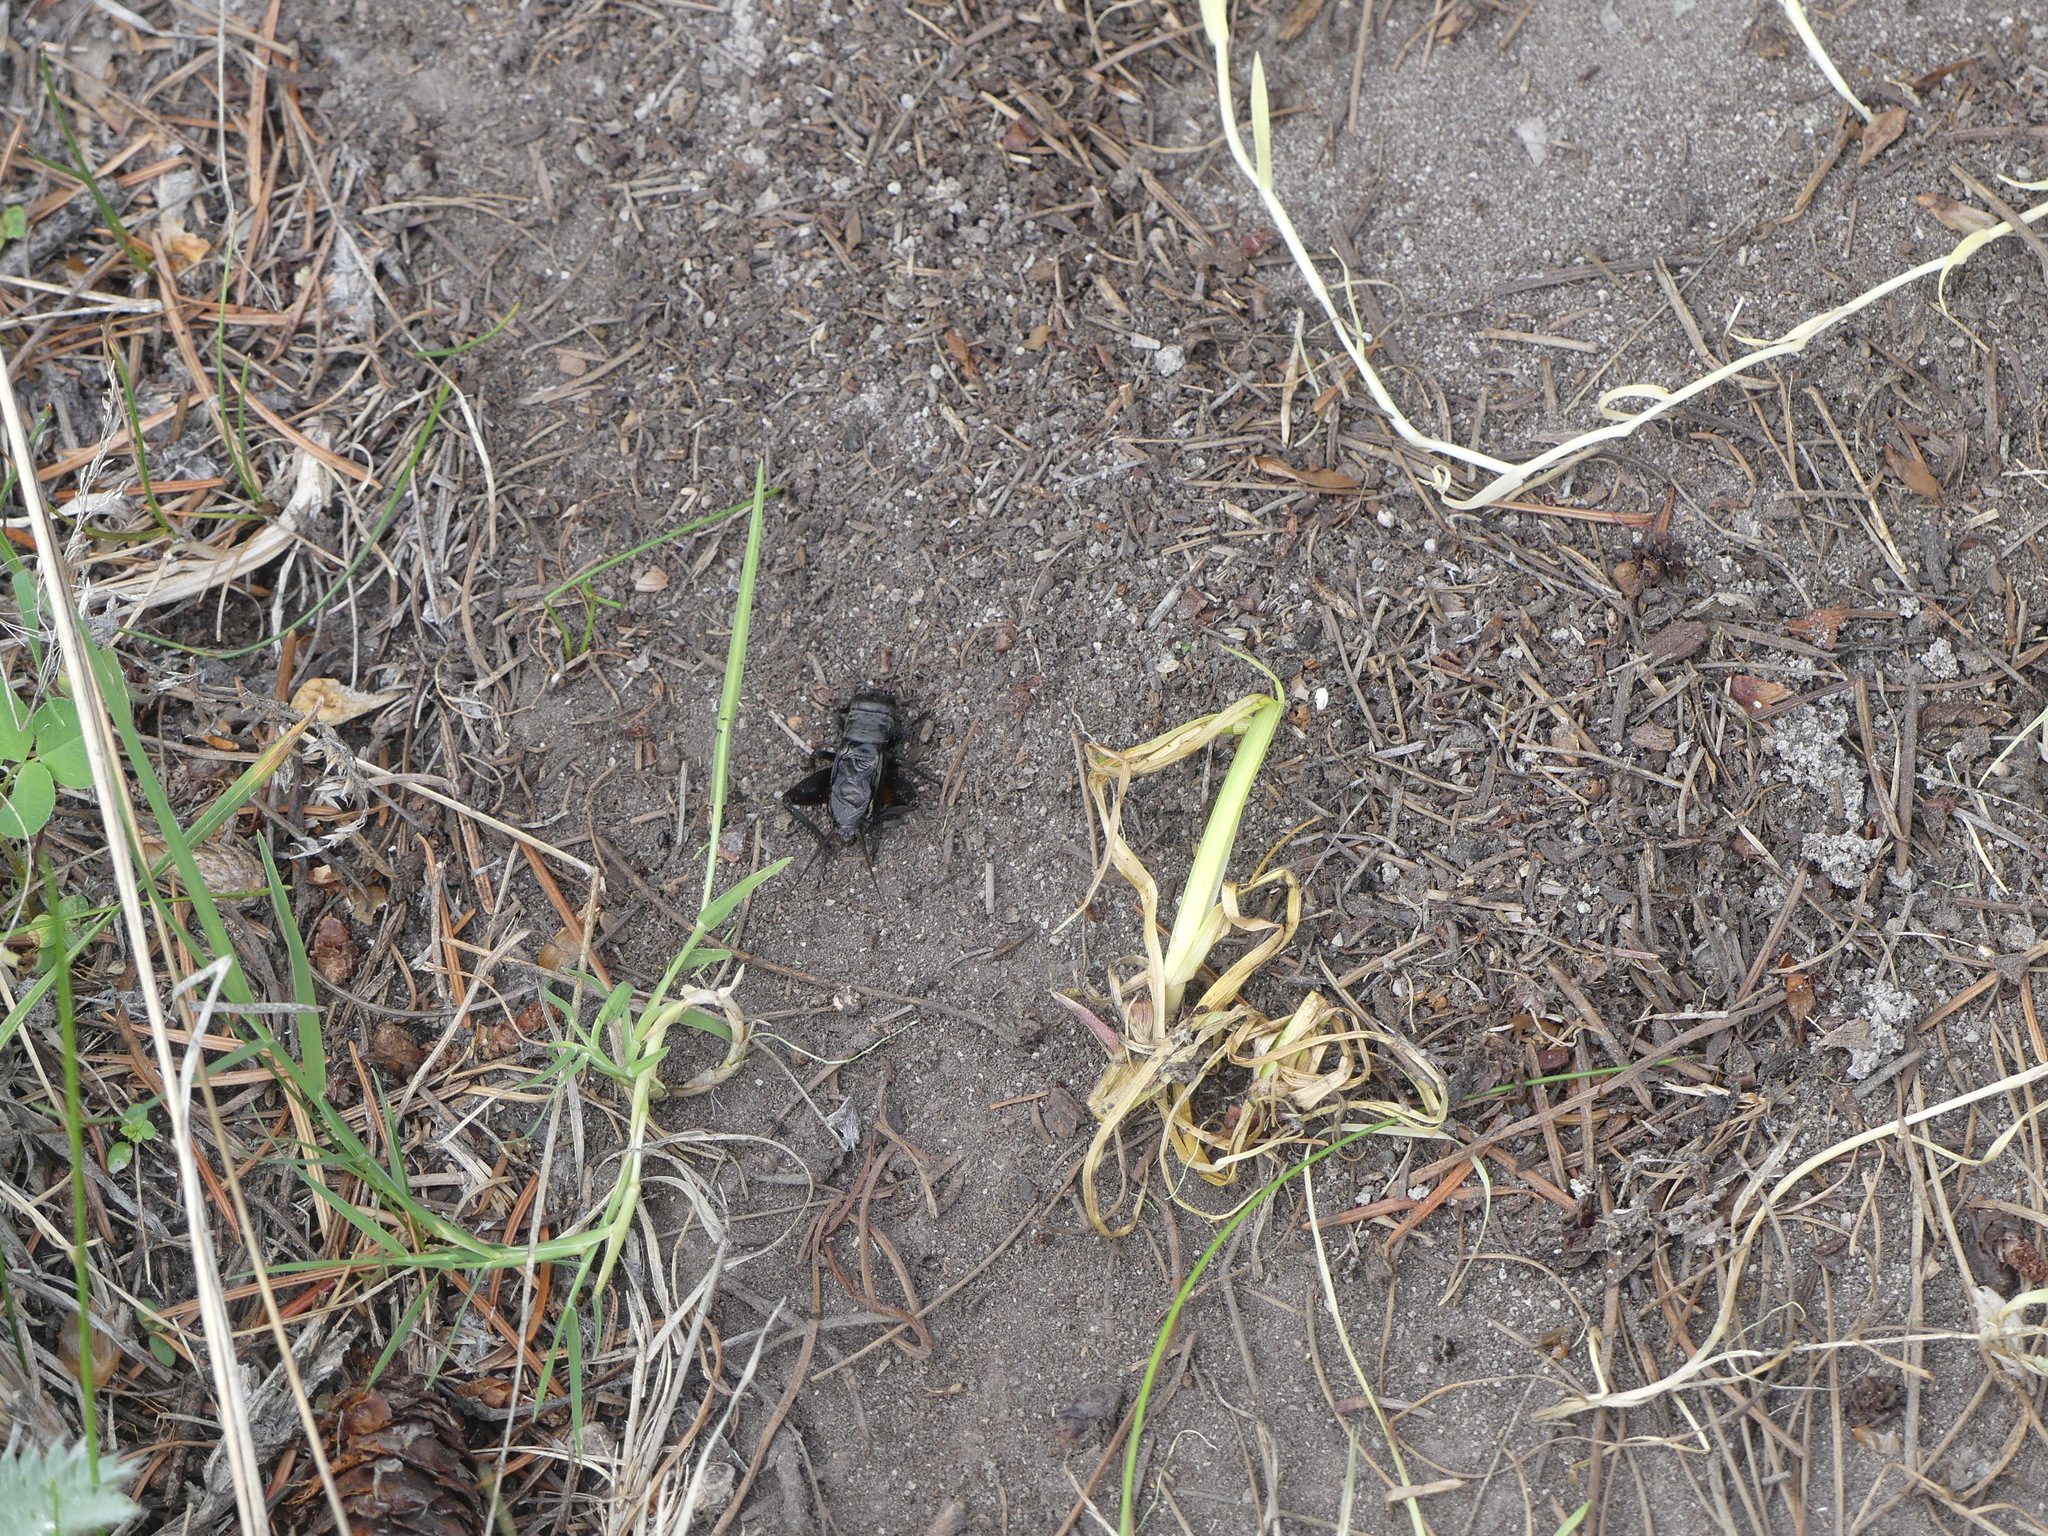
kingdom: Animalia
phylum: Arthropoda
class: Insecta
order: Orthoptera
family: Gryllidae
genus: Gryllus
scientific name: Gryllus saxatilis
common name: Western rock-loving field cricket
